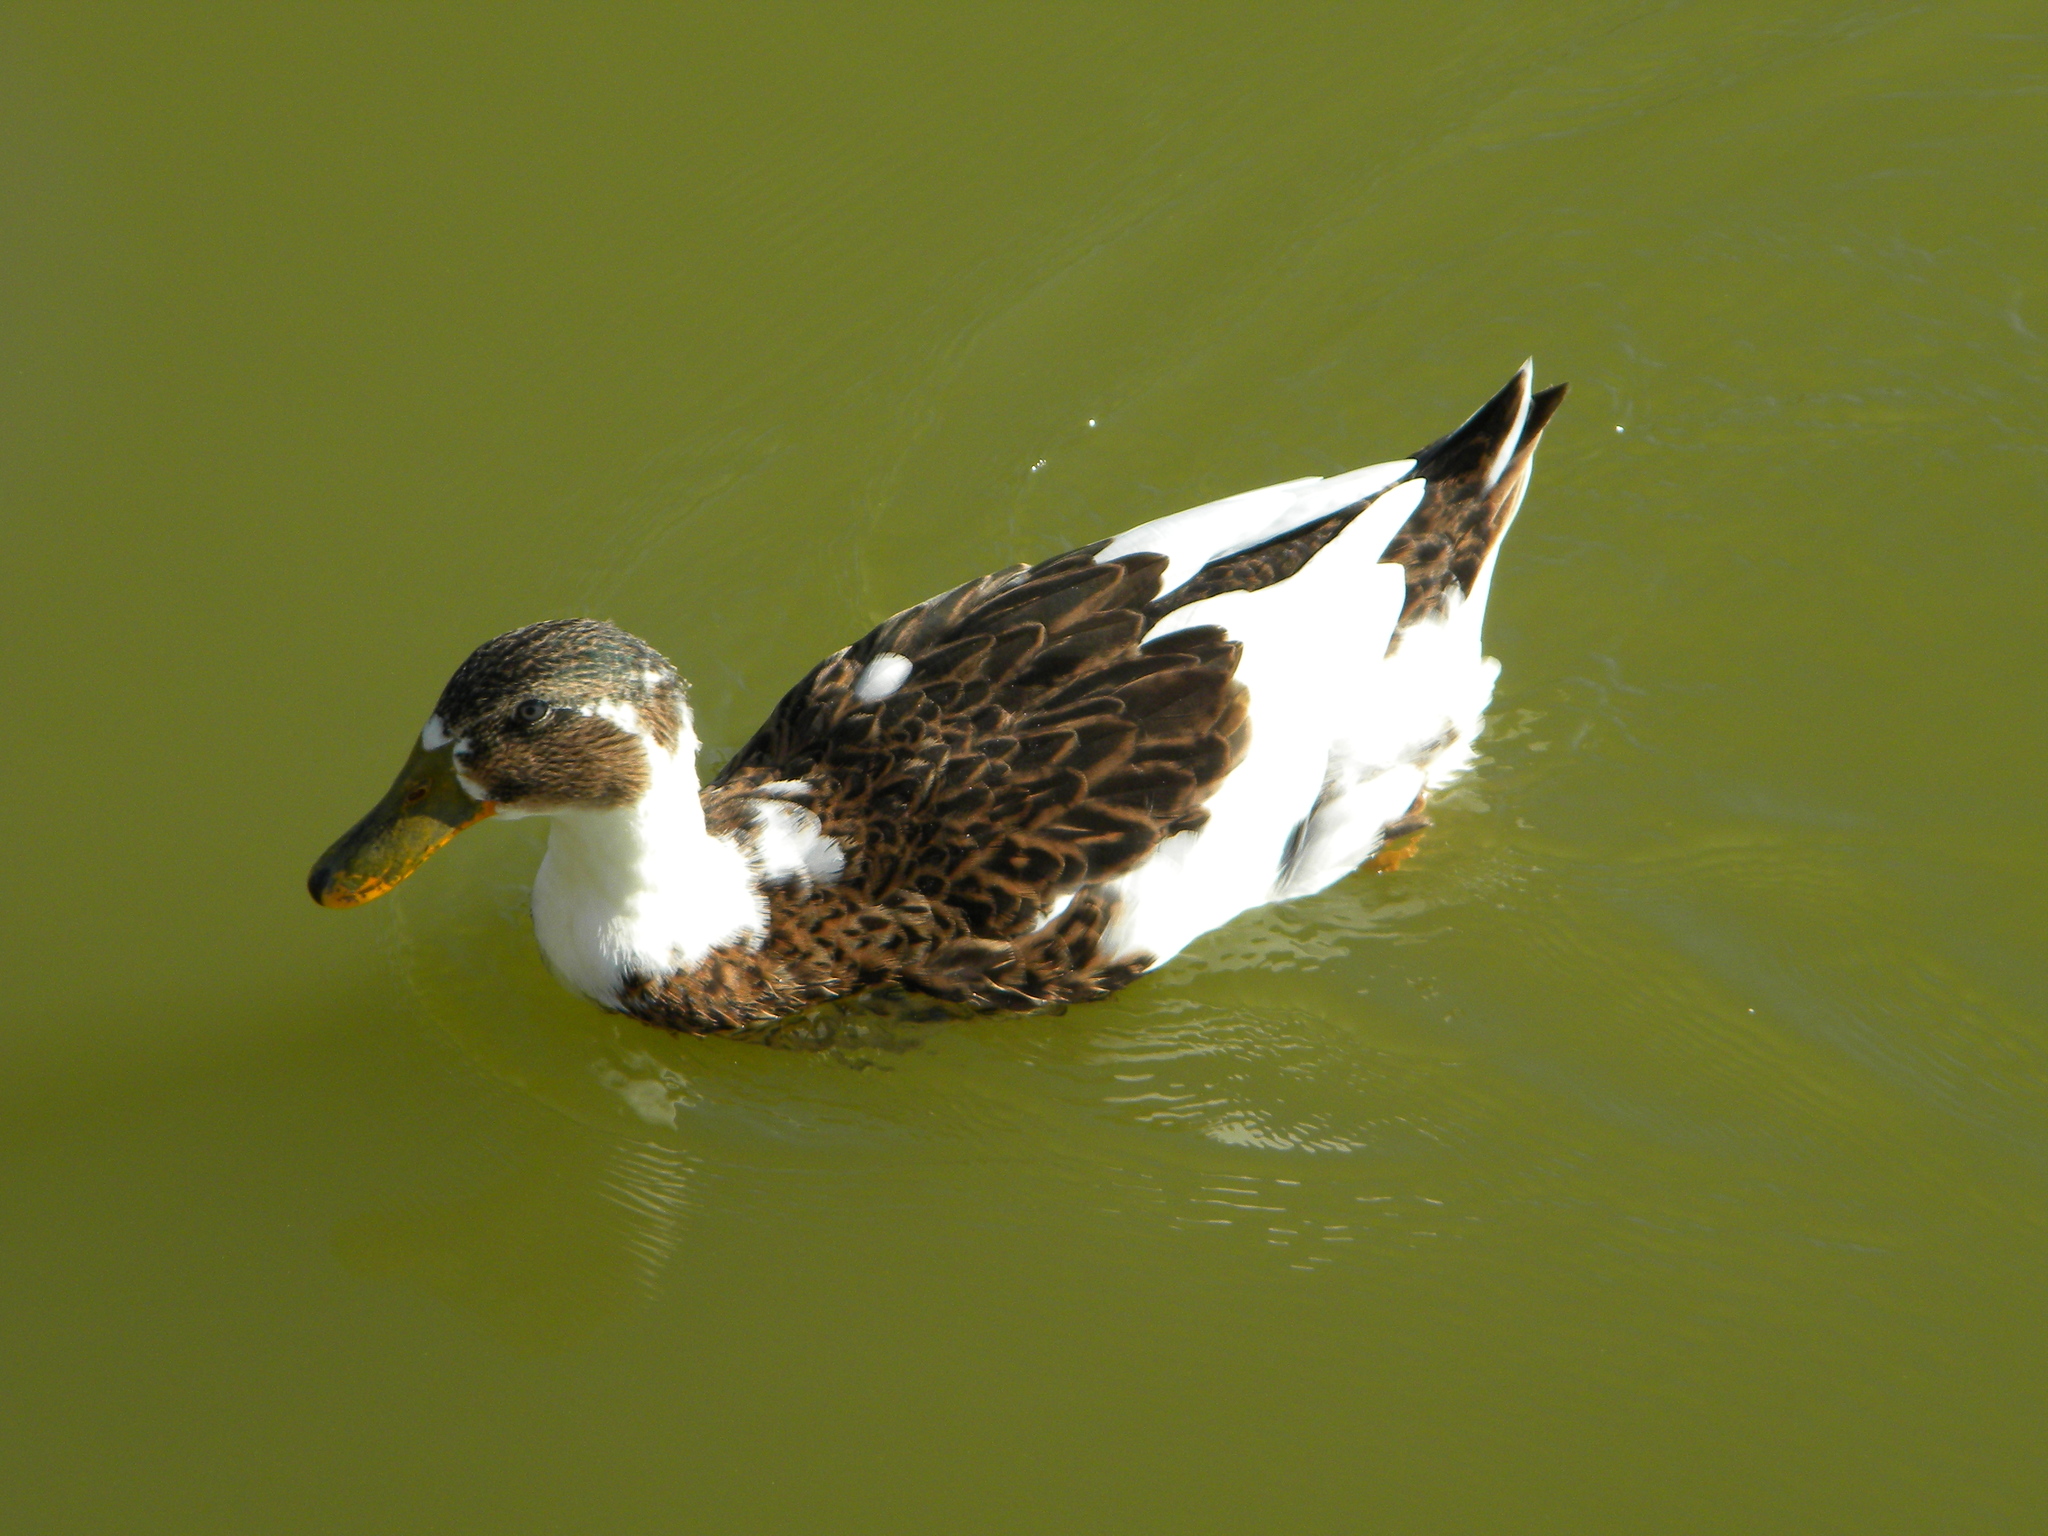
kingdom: Animalia
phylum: Chordata
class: Aves
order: Anseriformes
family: Anatidae
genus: Anas
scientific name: Anas platyrhynchos
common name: Mallard
